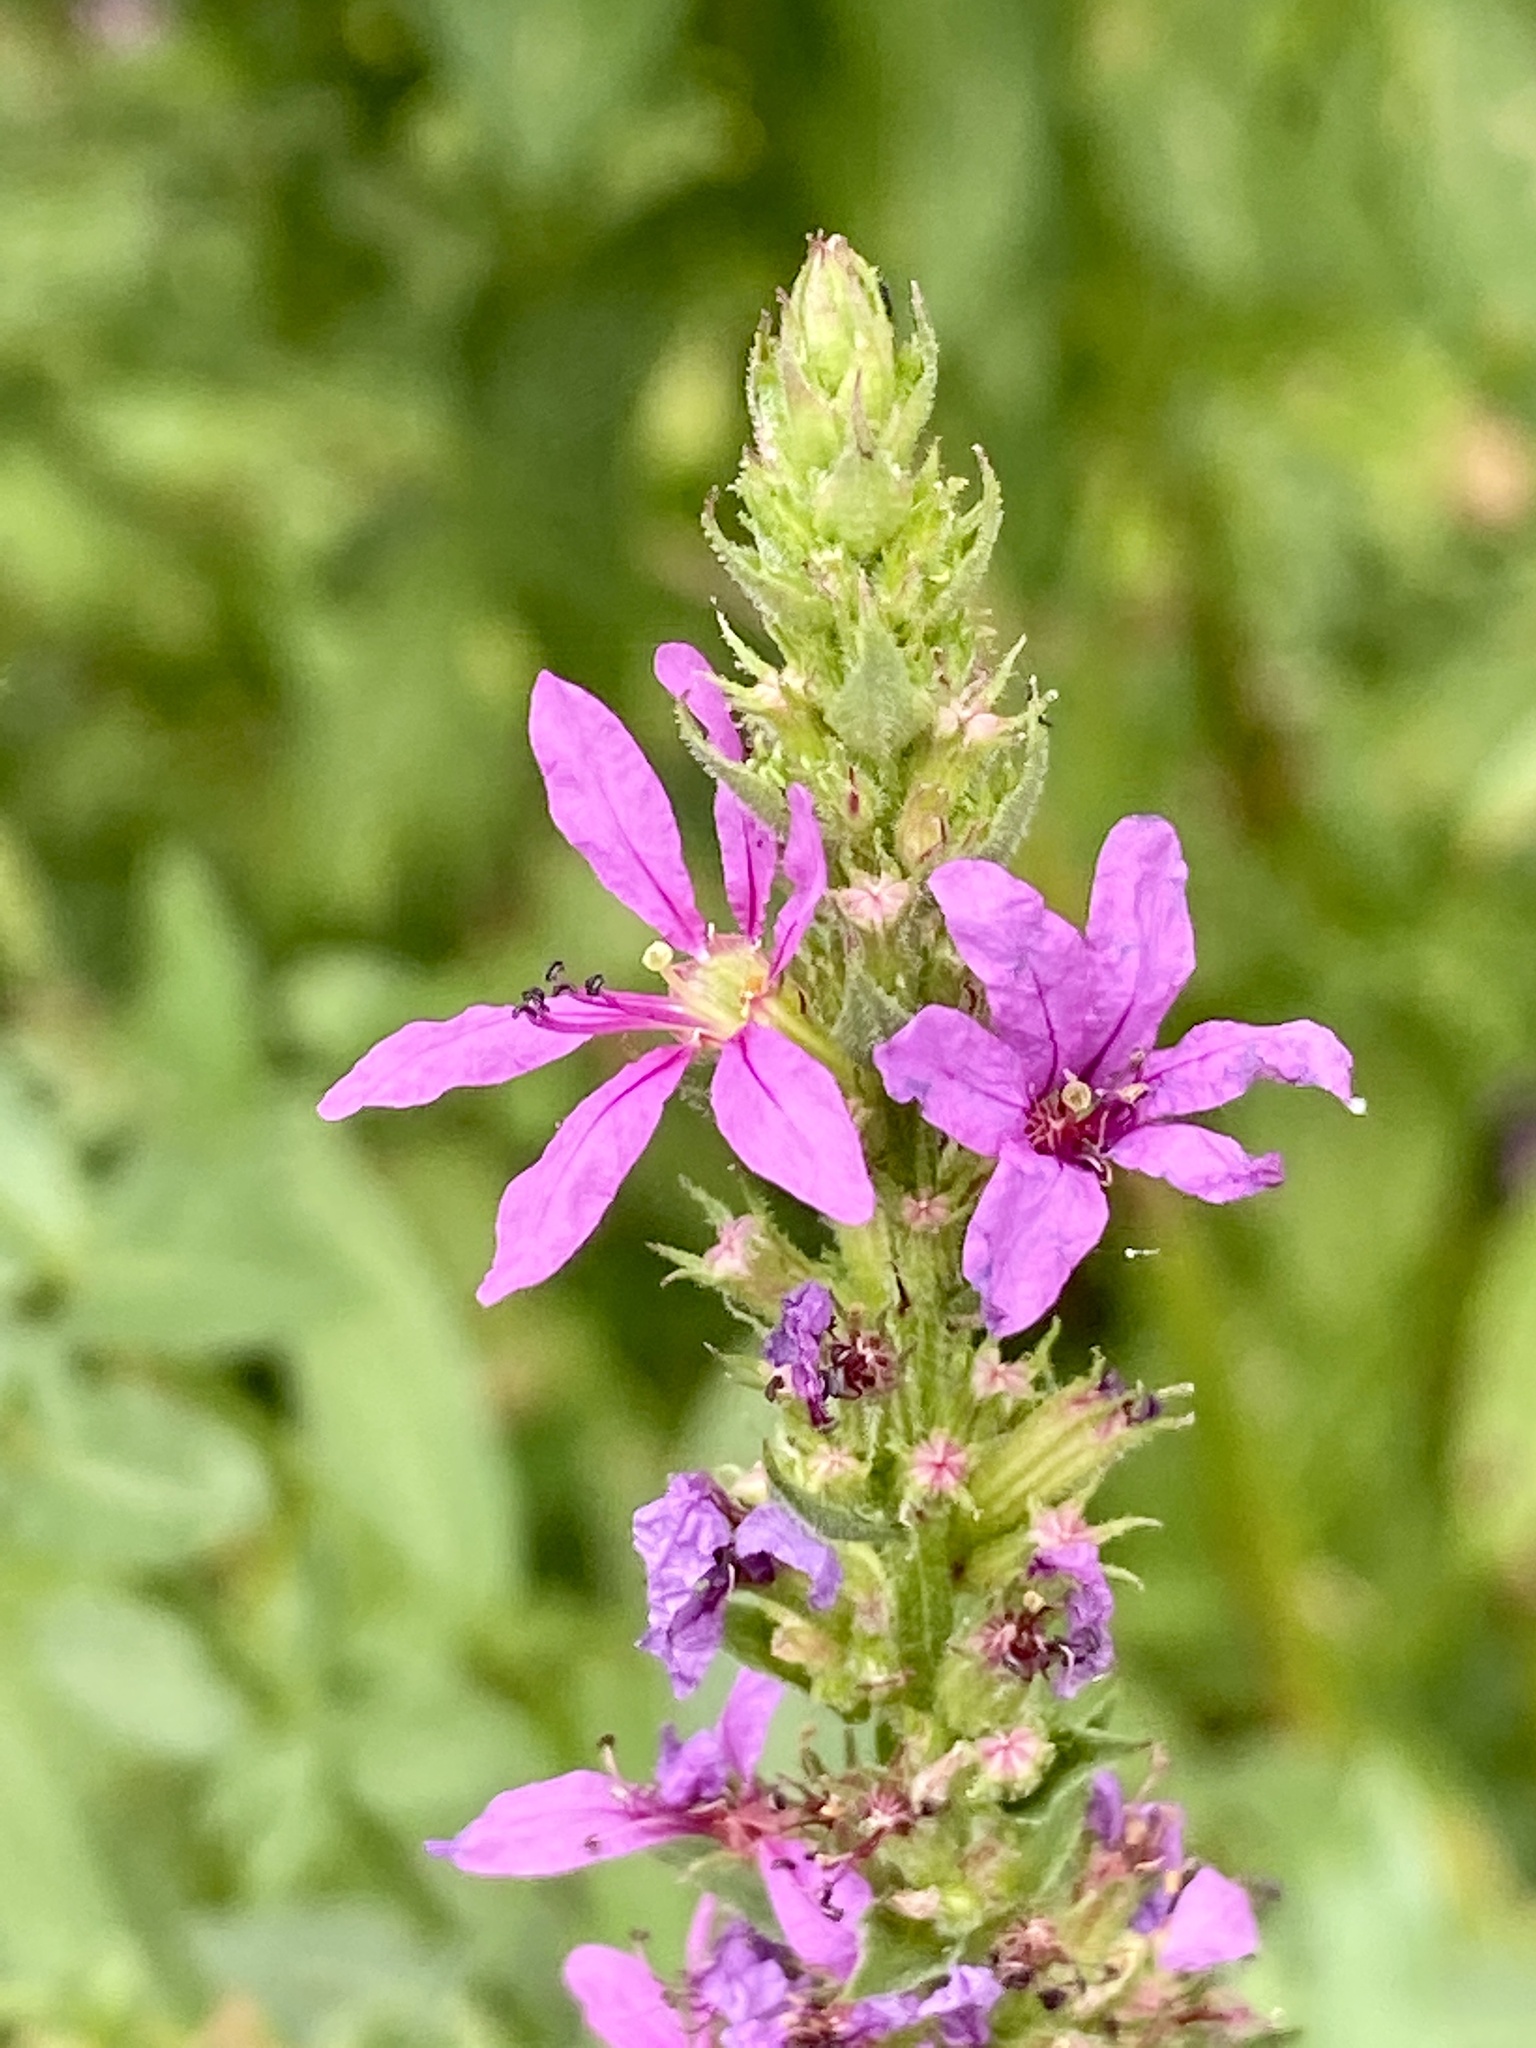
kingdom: Plantae
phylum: Tracheophyta
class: Magnoliopsida
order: Myrtales
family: Lythraceae
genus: Lythrum
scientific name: Lythrum salicaria
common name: Purple loosestrife
